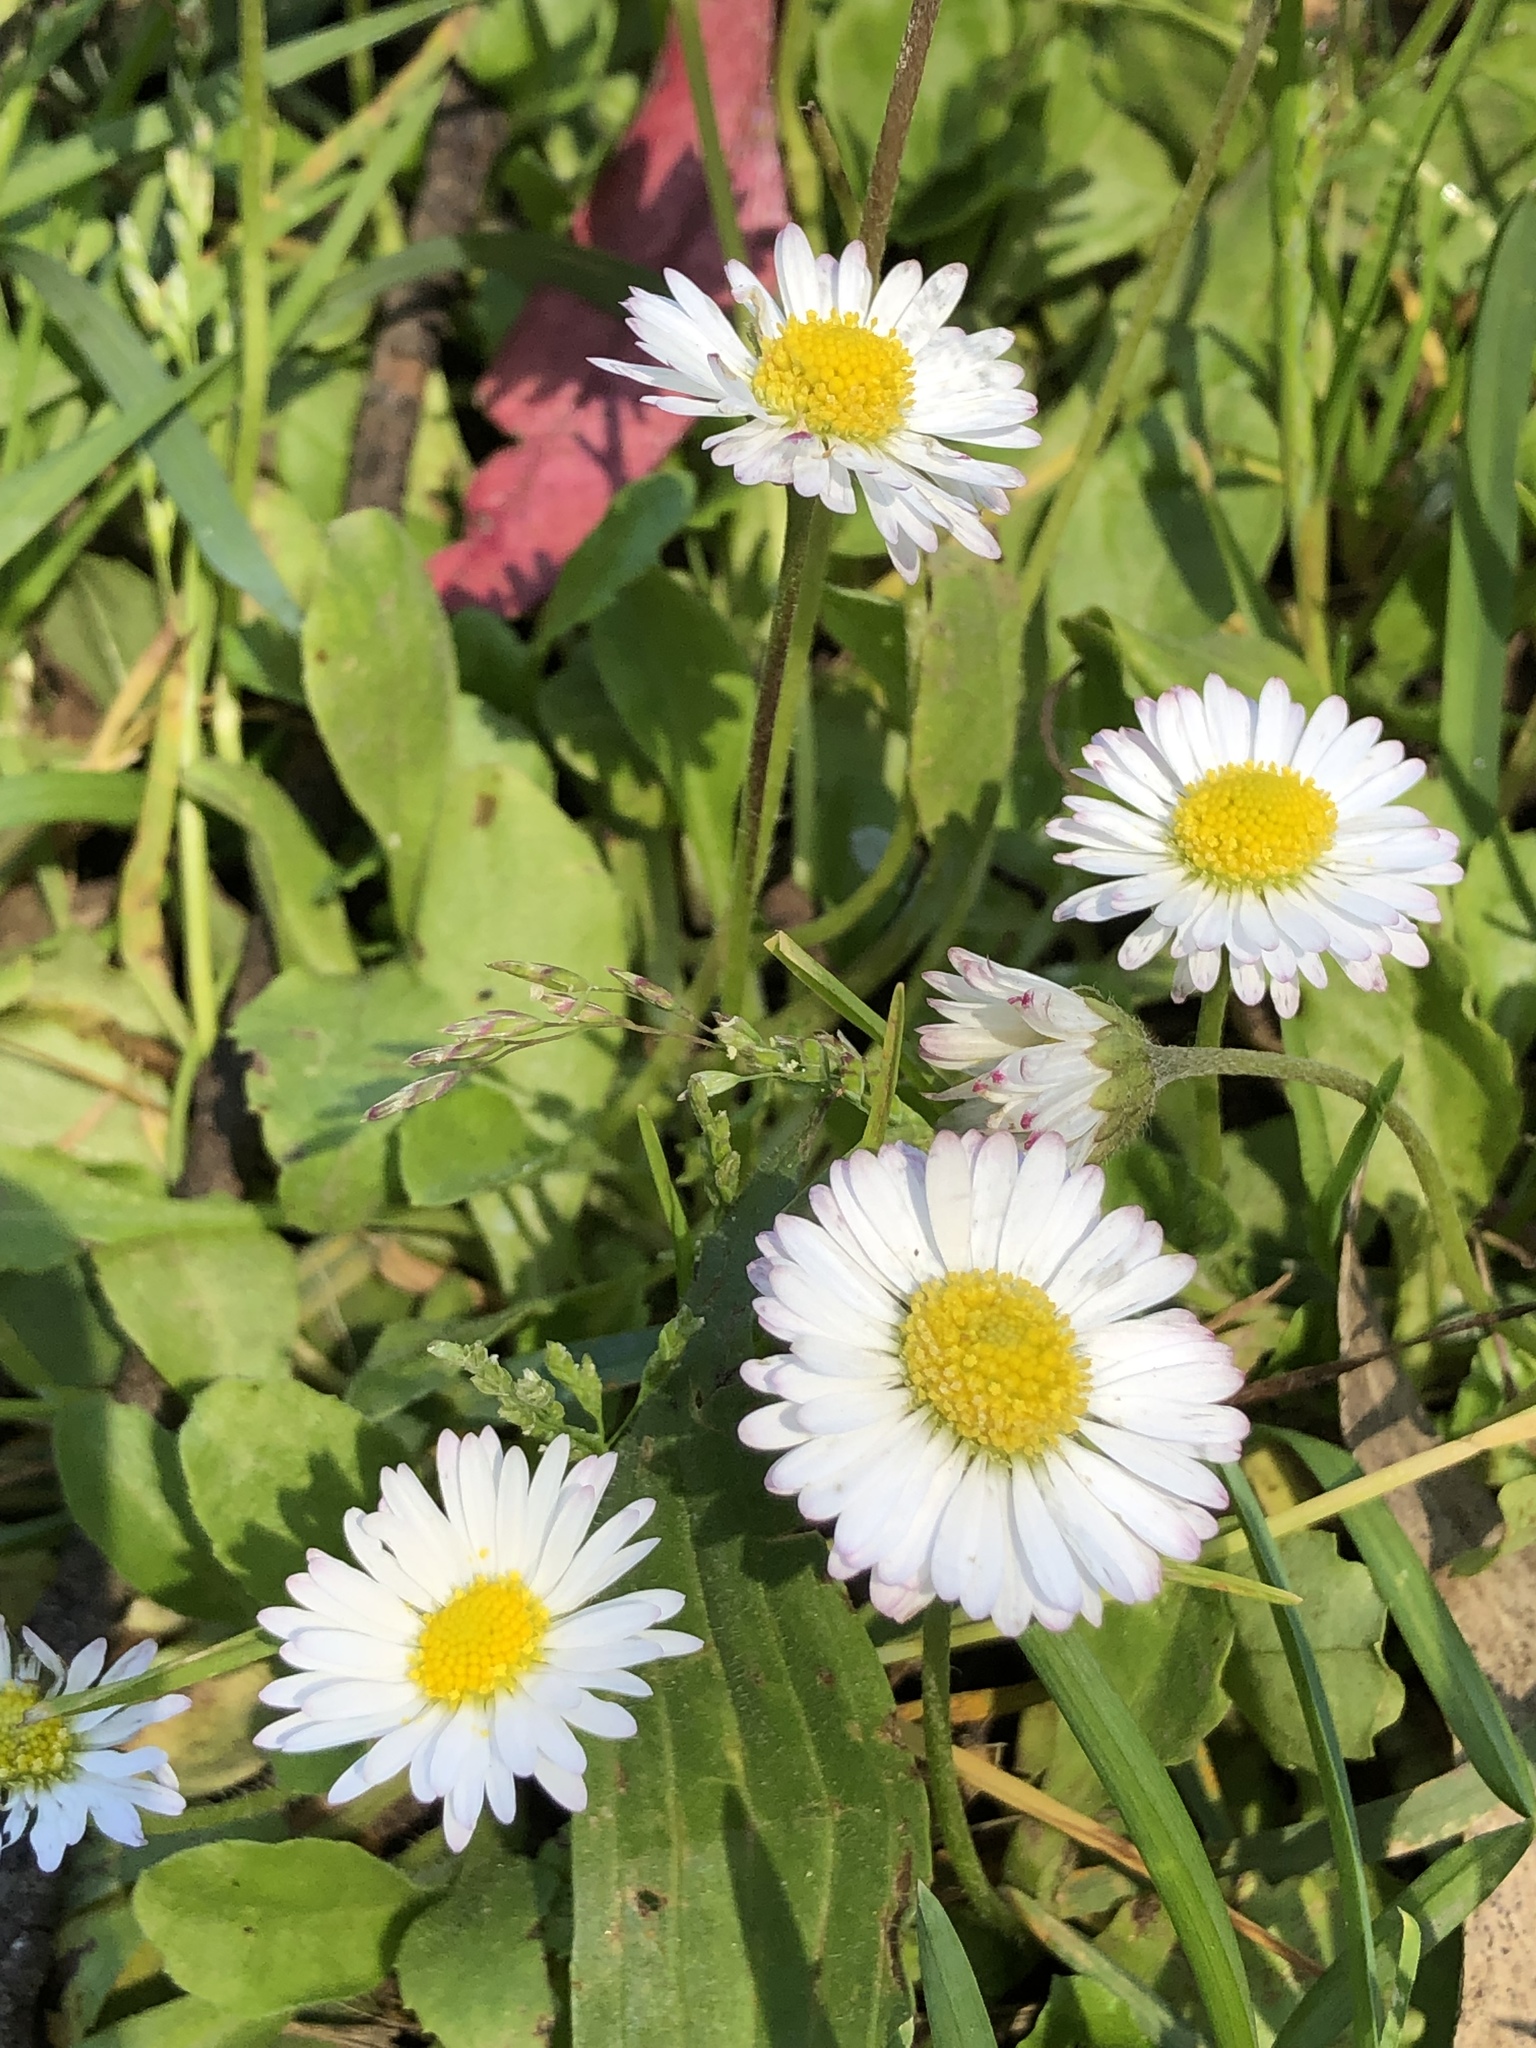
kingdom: Plantae
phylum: Tracheophyta
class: Magnoliopsida
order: Asterales
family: Asteraceae
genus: Bellis
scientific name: Bellis perennis
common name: Lawndaisy
